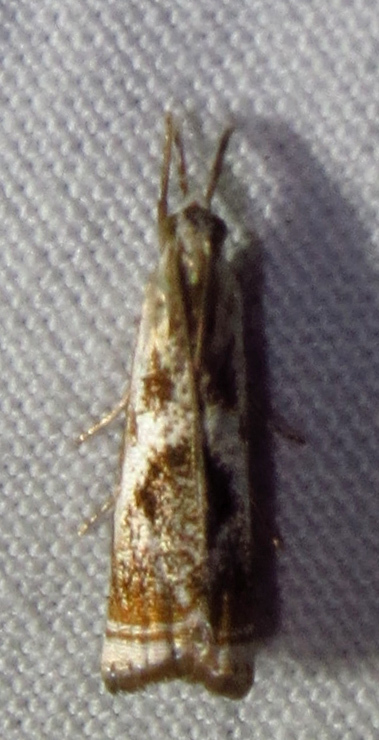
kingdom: Animalia
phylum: Arthropoda
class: Insecta
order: Lepidoptera
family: Crambidae
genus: Microcrambus
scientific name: Microcrambus elegans
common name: Elegant grass-veneer
